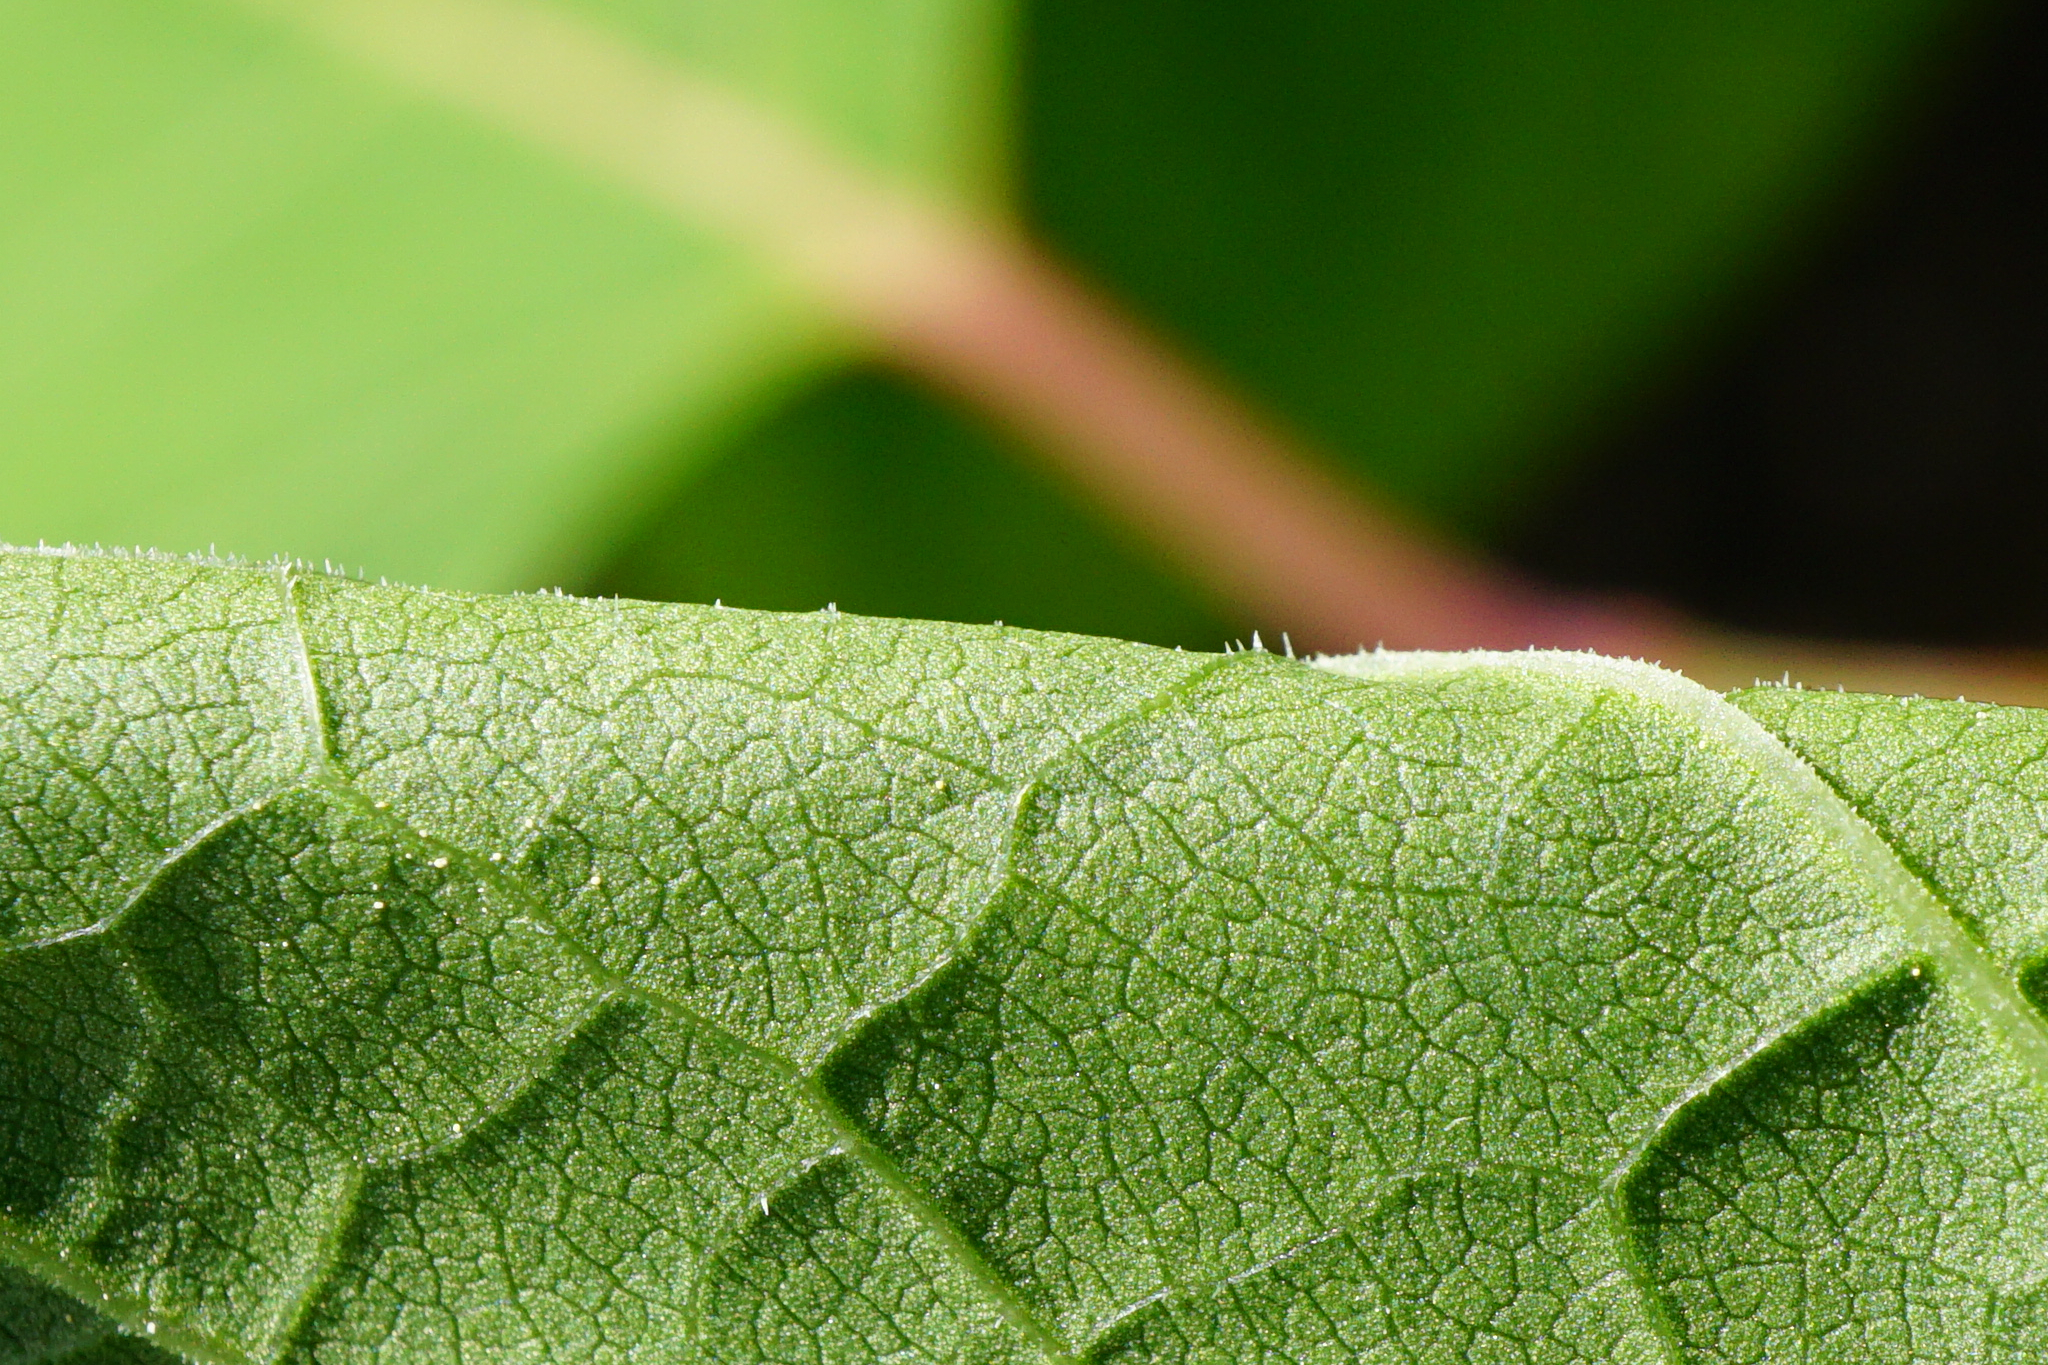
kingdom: Plantae
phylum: Tracheophyta
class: Magnoliopsida
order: Caryophyllales
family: Polygonaceae
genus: Reynoutria
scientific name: Reynoutria bohemica
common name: Bohemian knotweed
